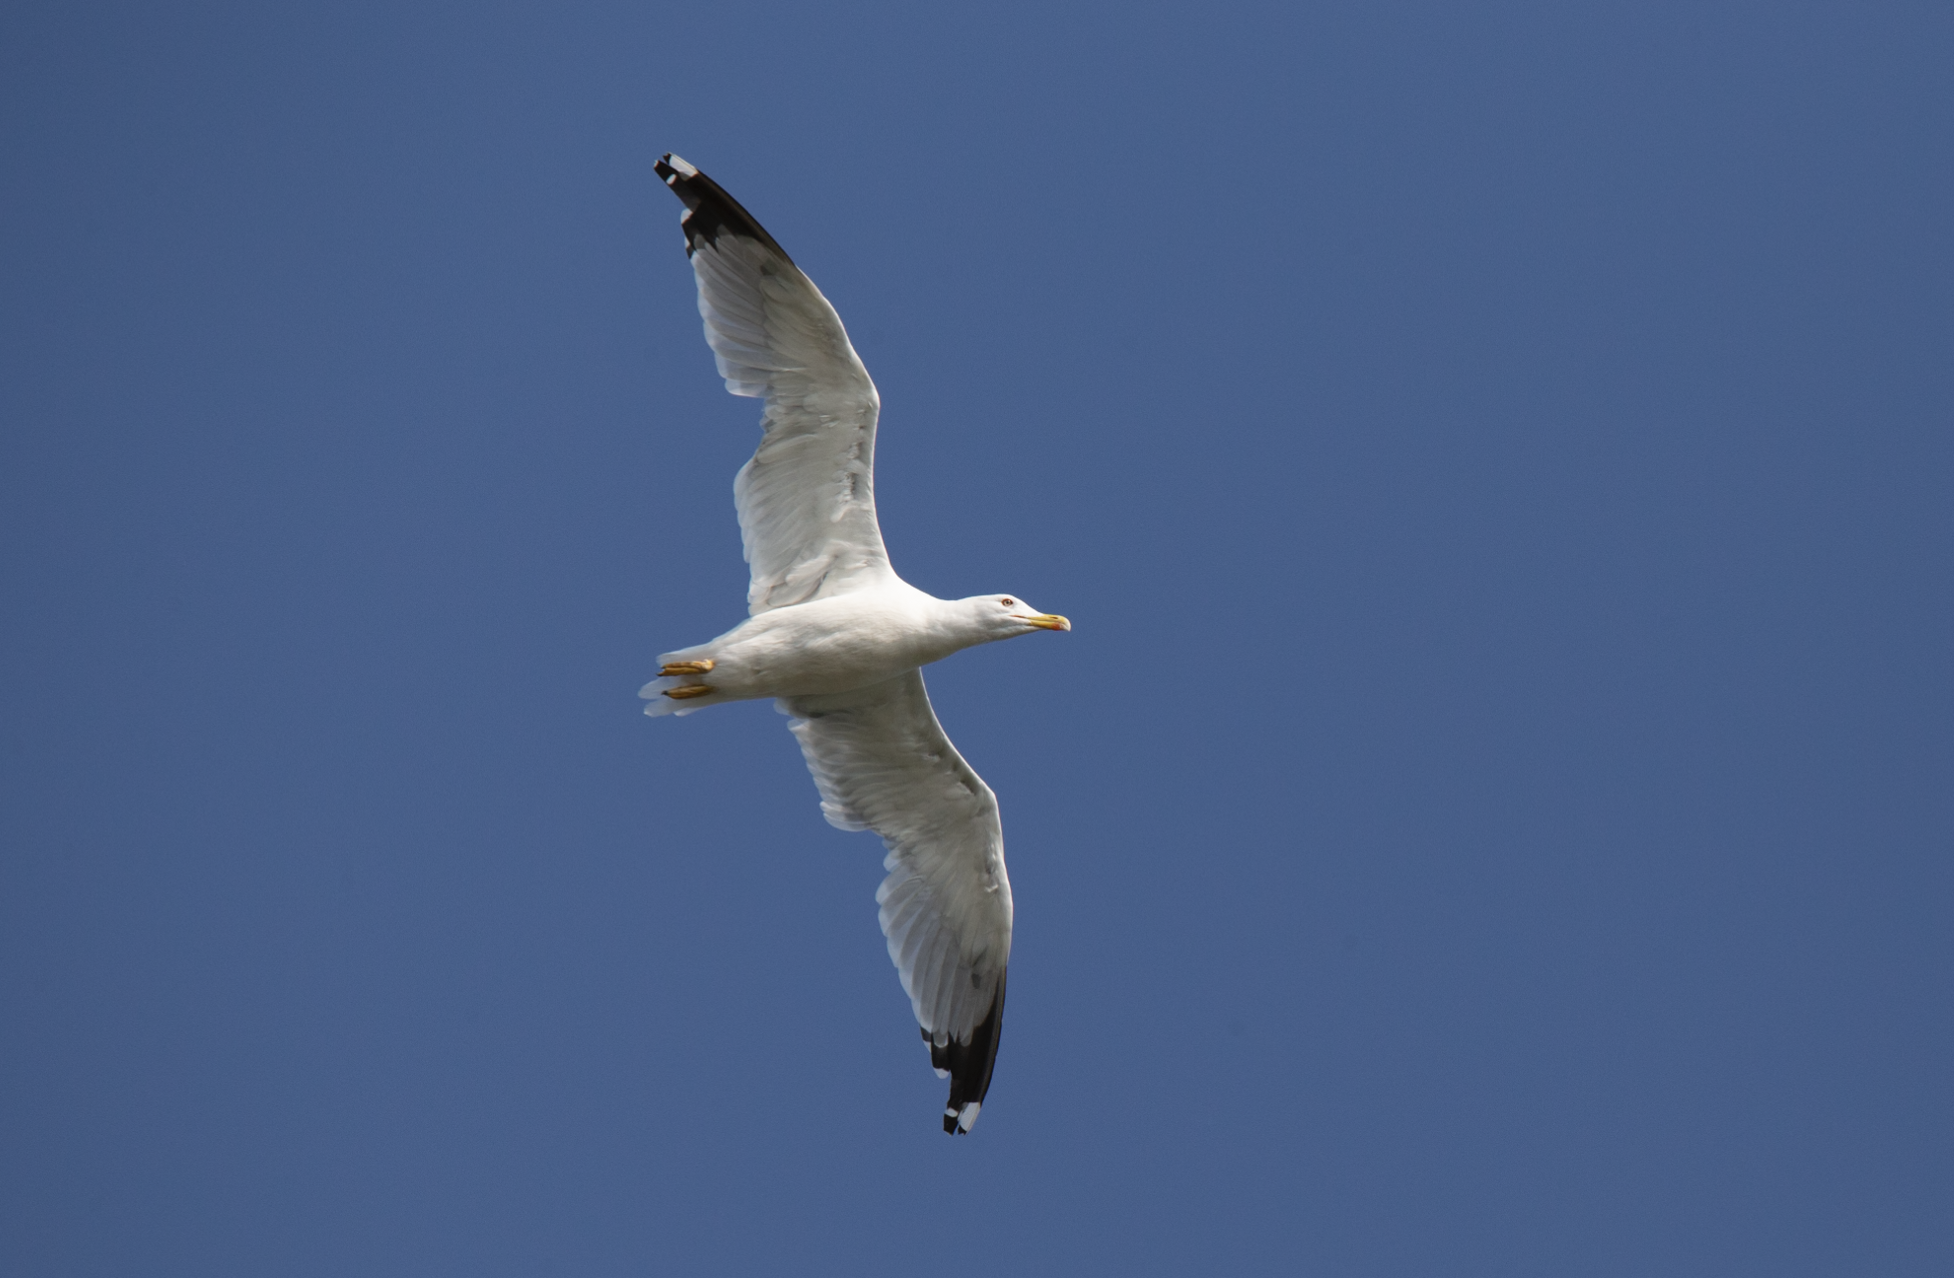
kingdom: Animalia
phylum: Chordata
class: Aves
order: Charadriiformes
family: Laridae
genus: Larus
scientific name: Larus michahellis
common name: Yellow-legged gull
